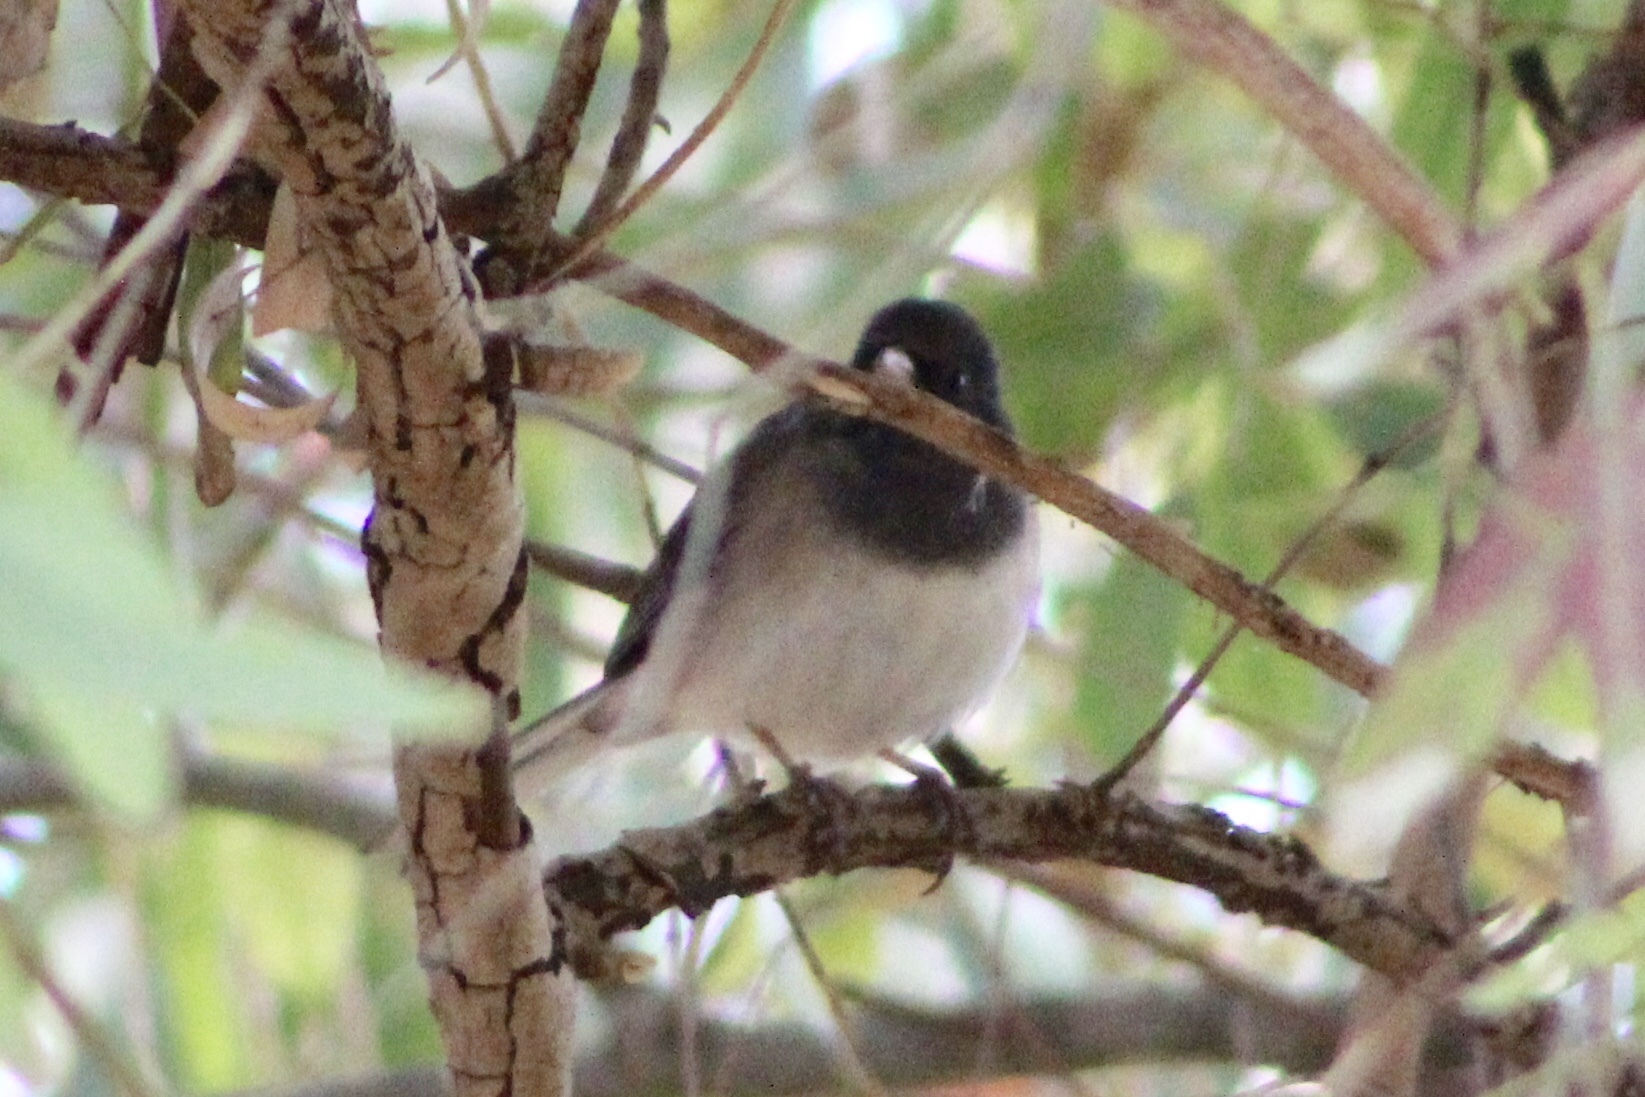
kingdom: Animalia
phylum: Chordata
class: Aves
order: Passeriformes
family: Passerellidae
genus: Junco
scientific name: Junco hyemalis
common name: Dark-eyed junco
